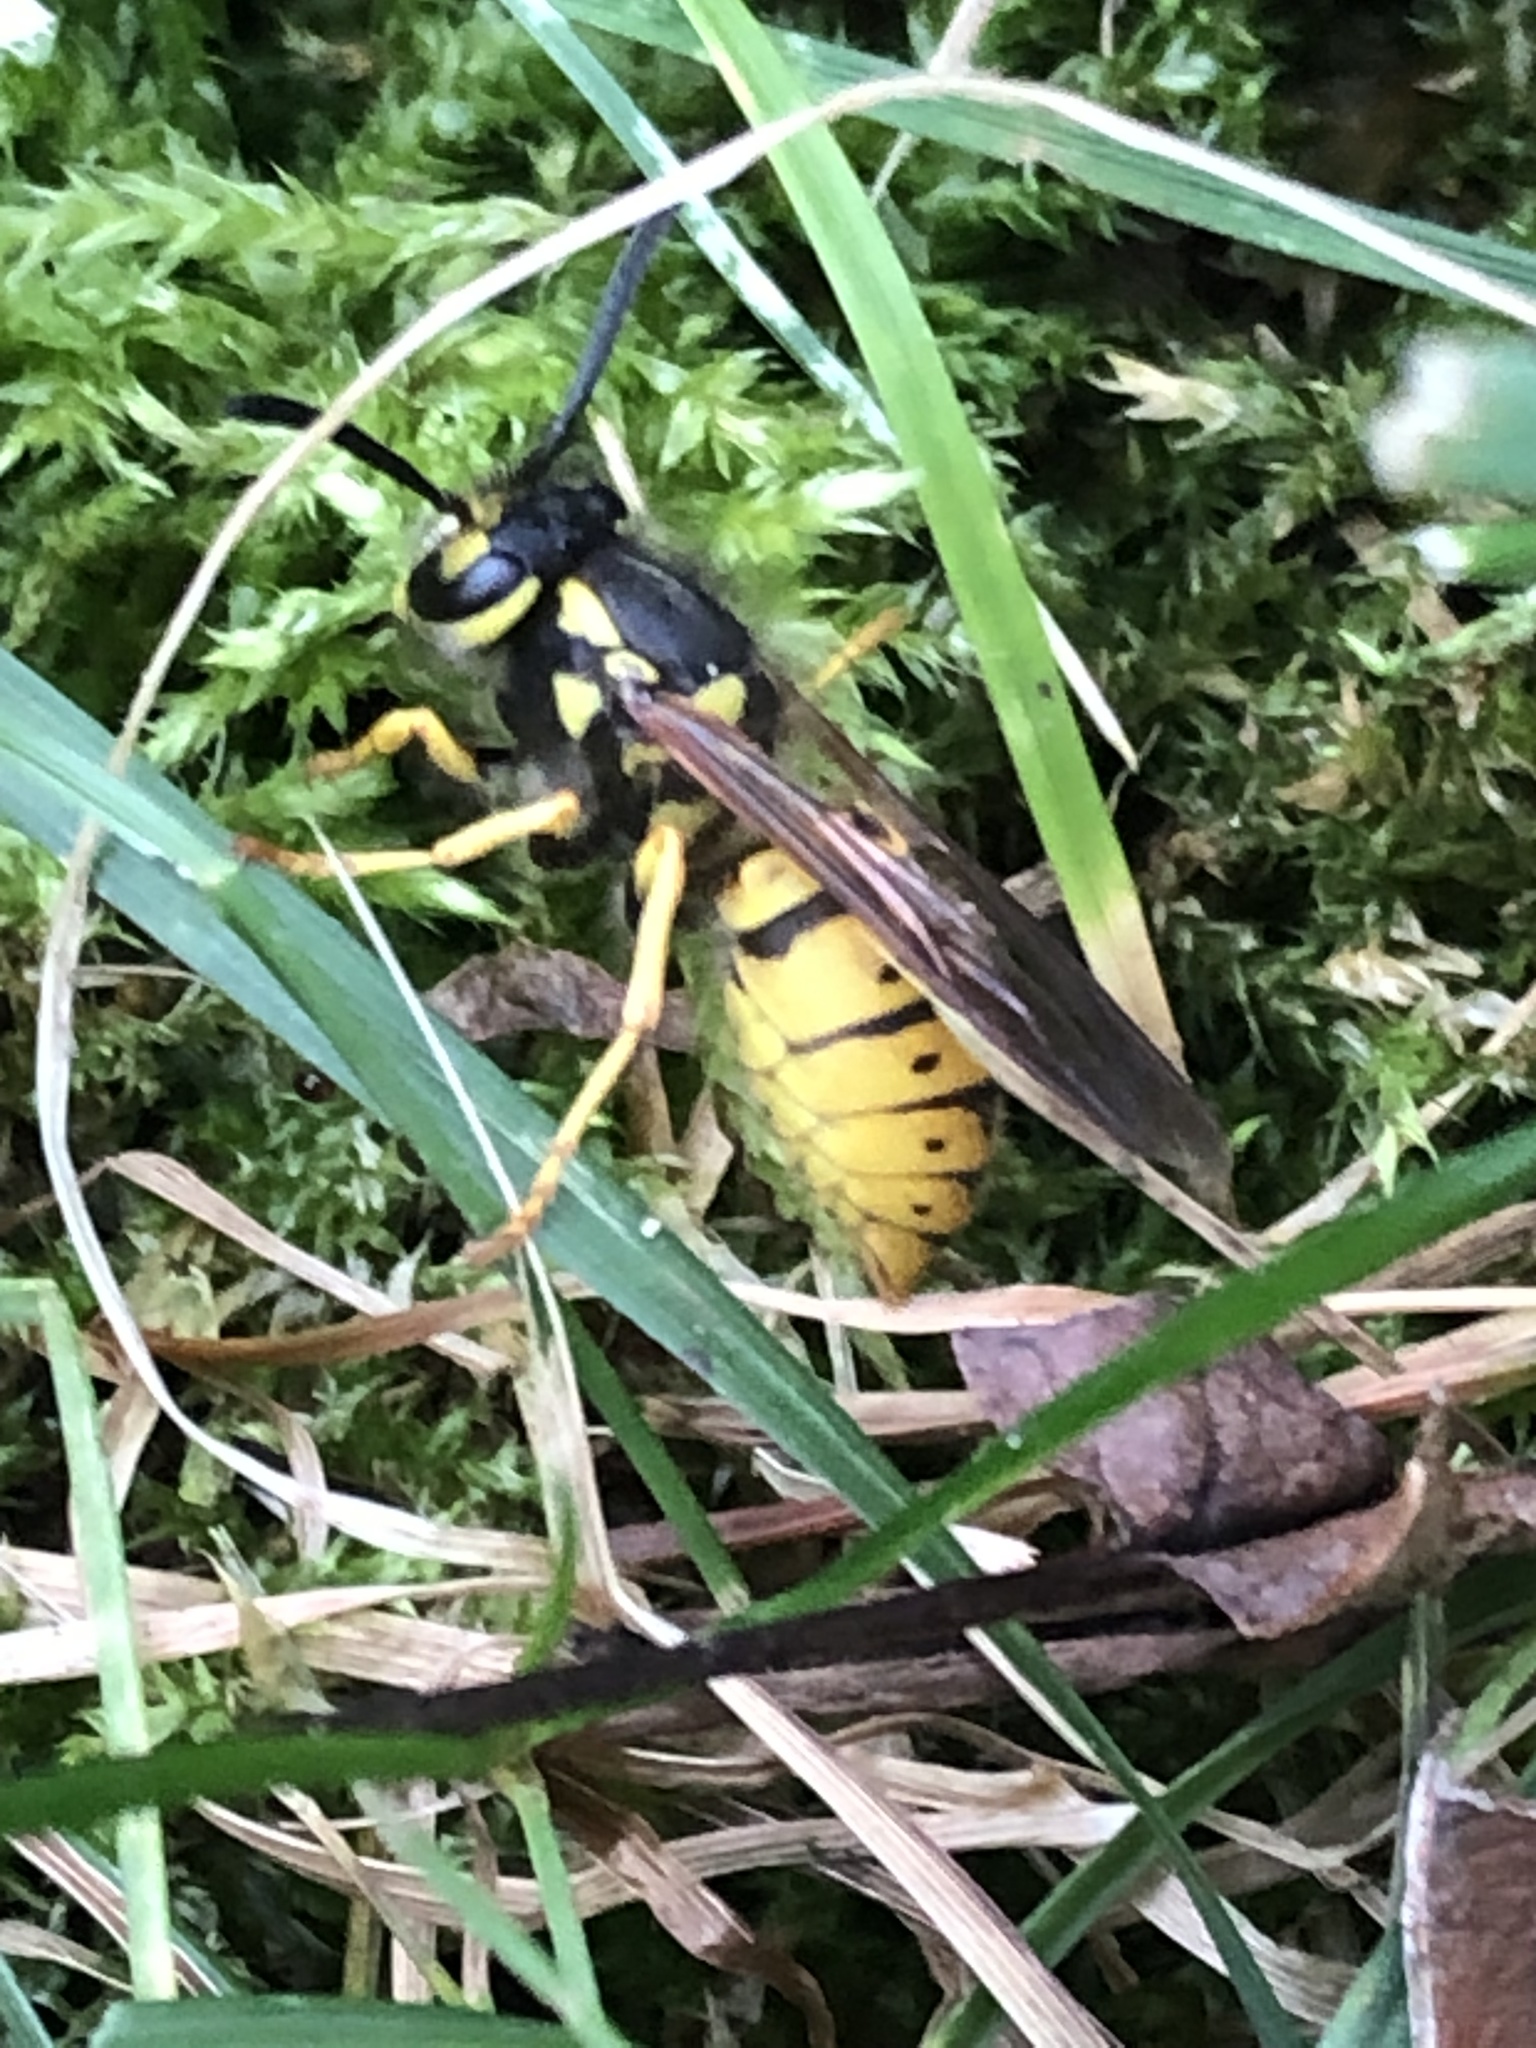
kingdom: Animalia
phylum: Arthropoda
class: Insecta
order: Hymenoptera
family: Vespidae
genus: Vespula
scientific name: Vespula germanica
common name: German wasp
